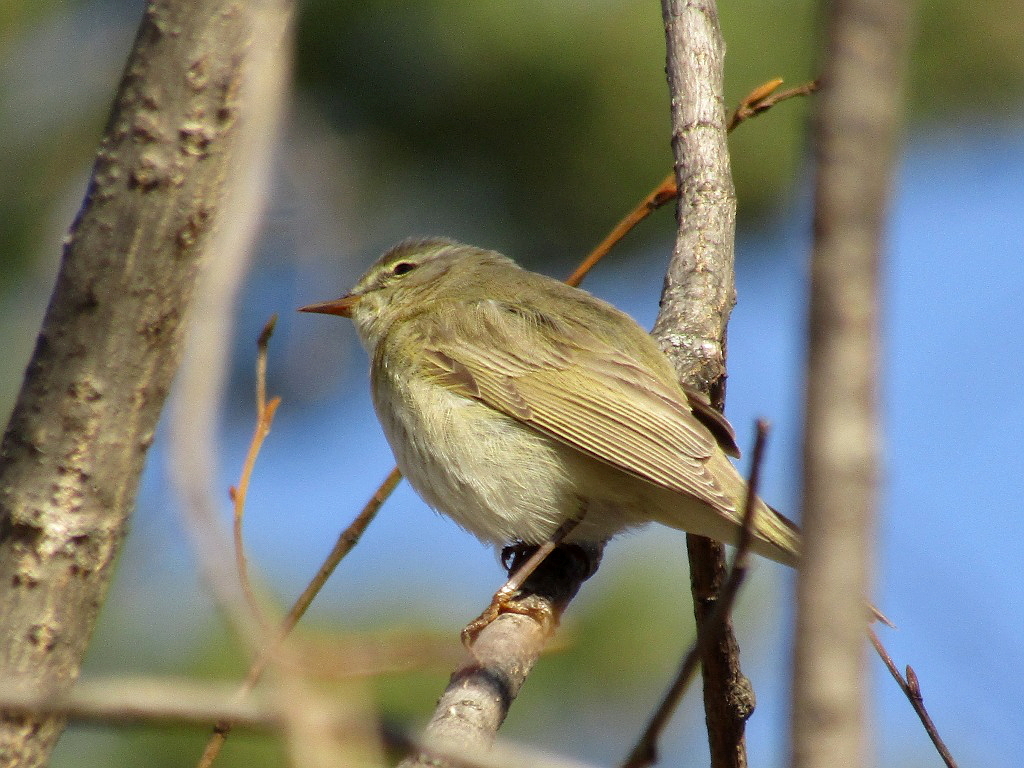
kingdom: Animalia
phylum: Chordata
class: Aves
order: Passeriformes
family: Phylloscopidae
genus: Phylloscopus
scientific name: Phylloscopus trochilus
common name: Willow warbler
